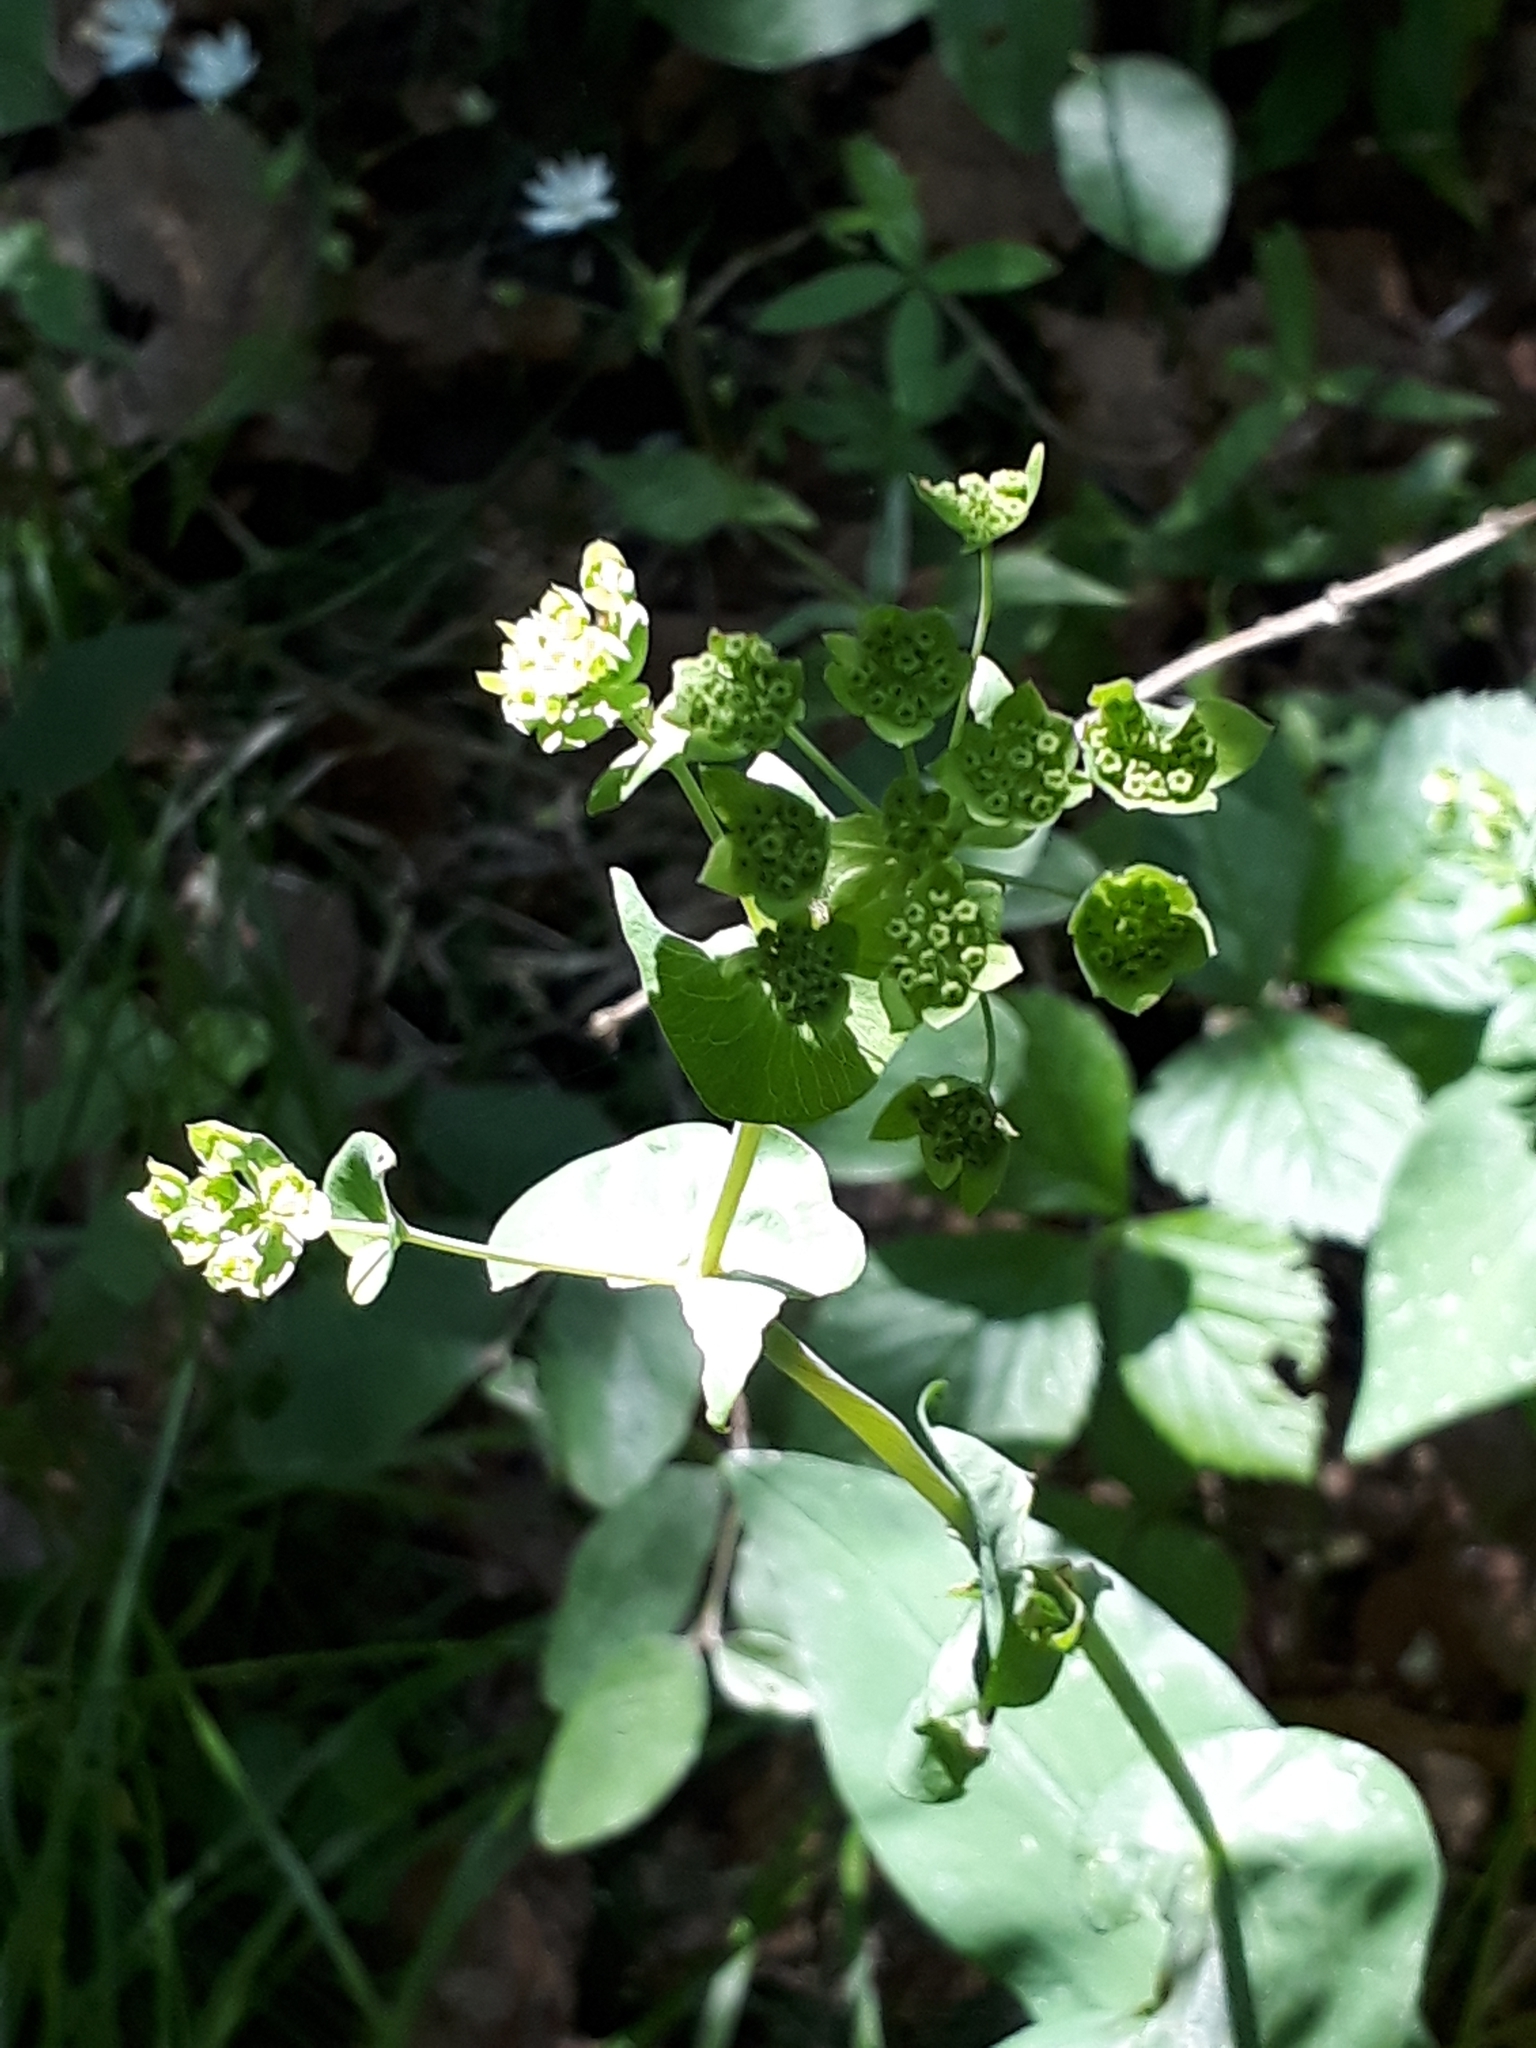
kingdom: Plantae
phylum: Tracheophyta
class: Magnoliopsida
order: Apiales
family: Apiaceae
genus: Bupleurum
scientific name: Bupleurum aureum
